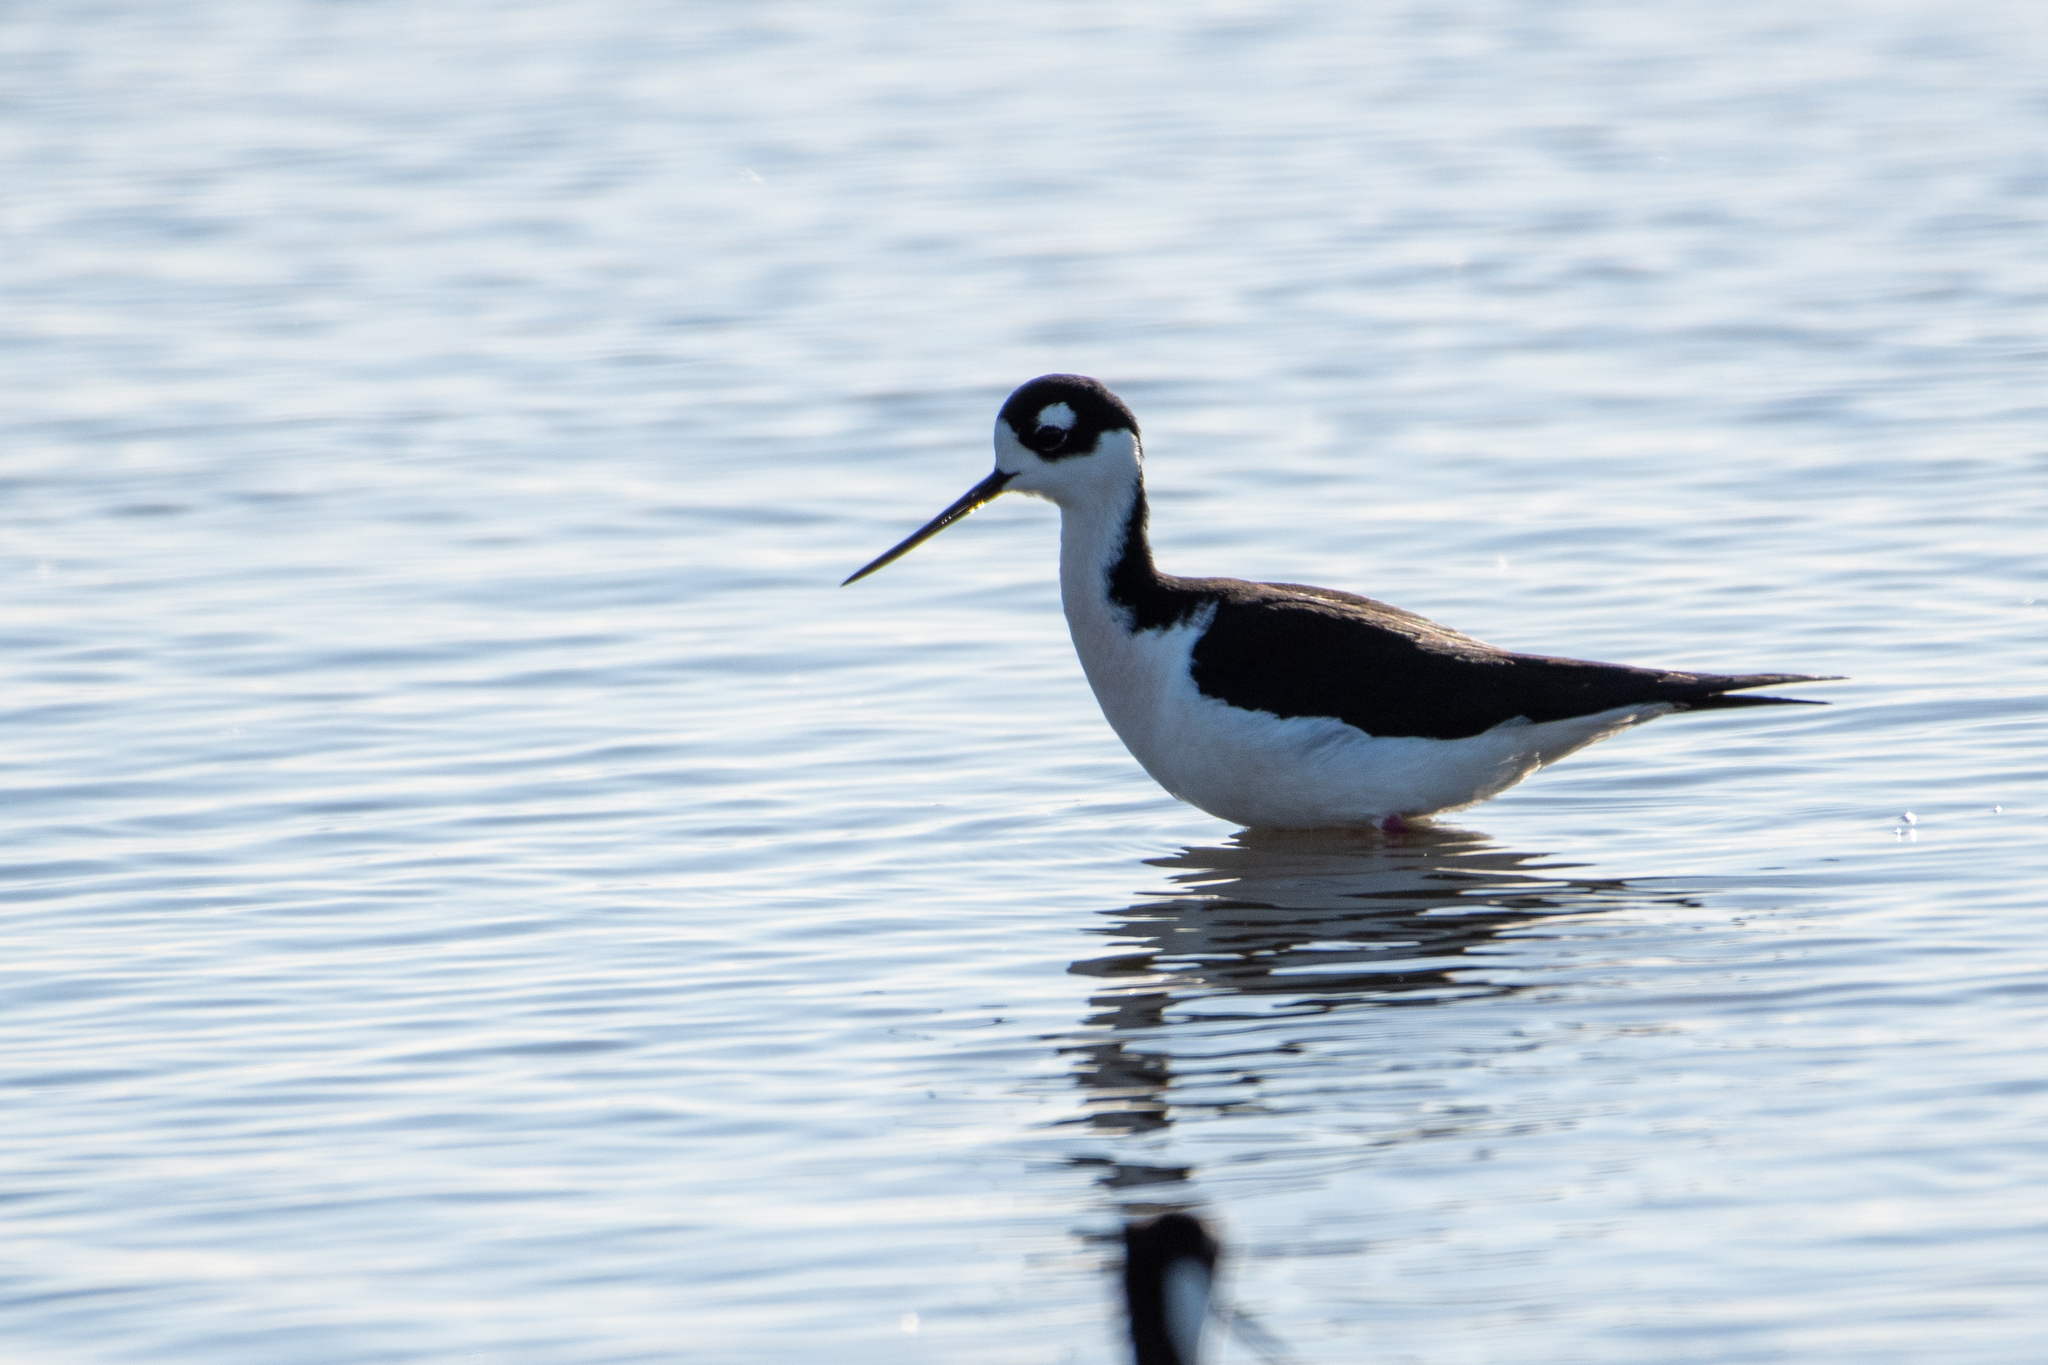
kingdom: Animalia
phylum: Chordata
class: Aves
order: Charadriiformes
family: Recurvirostridae
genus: Himantopus
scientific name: Himantopus mexicanus
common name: Black-necked stilt
